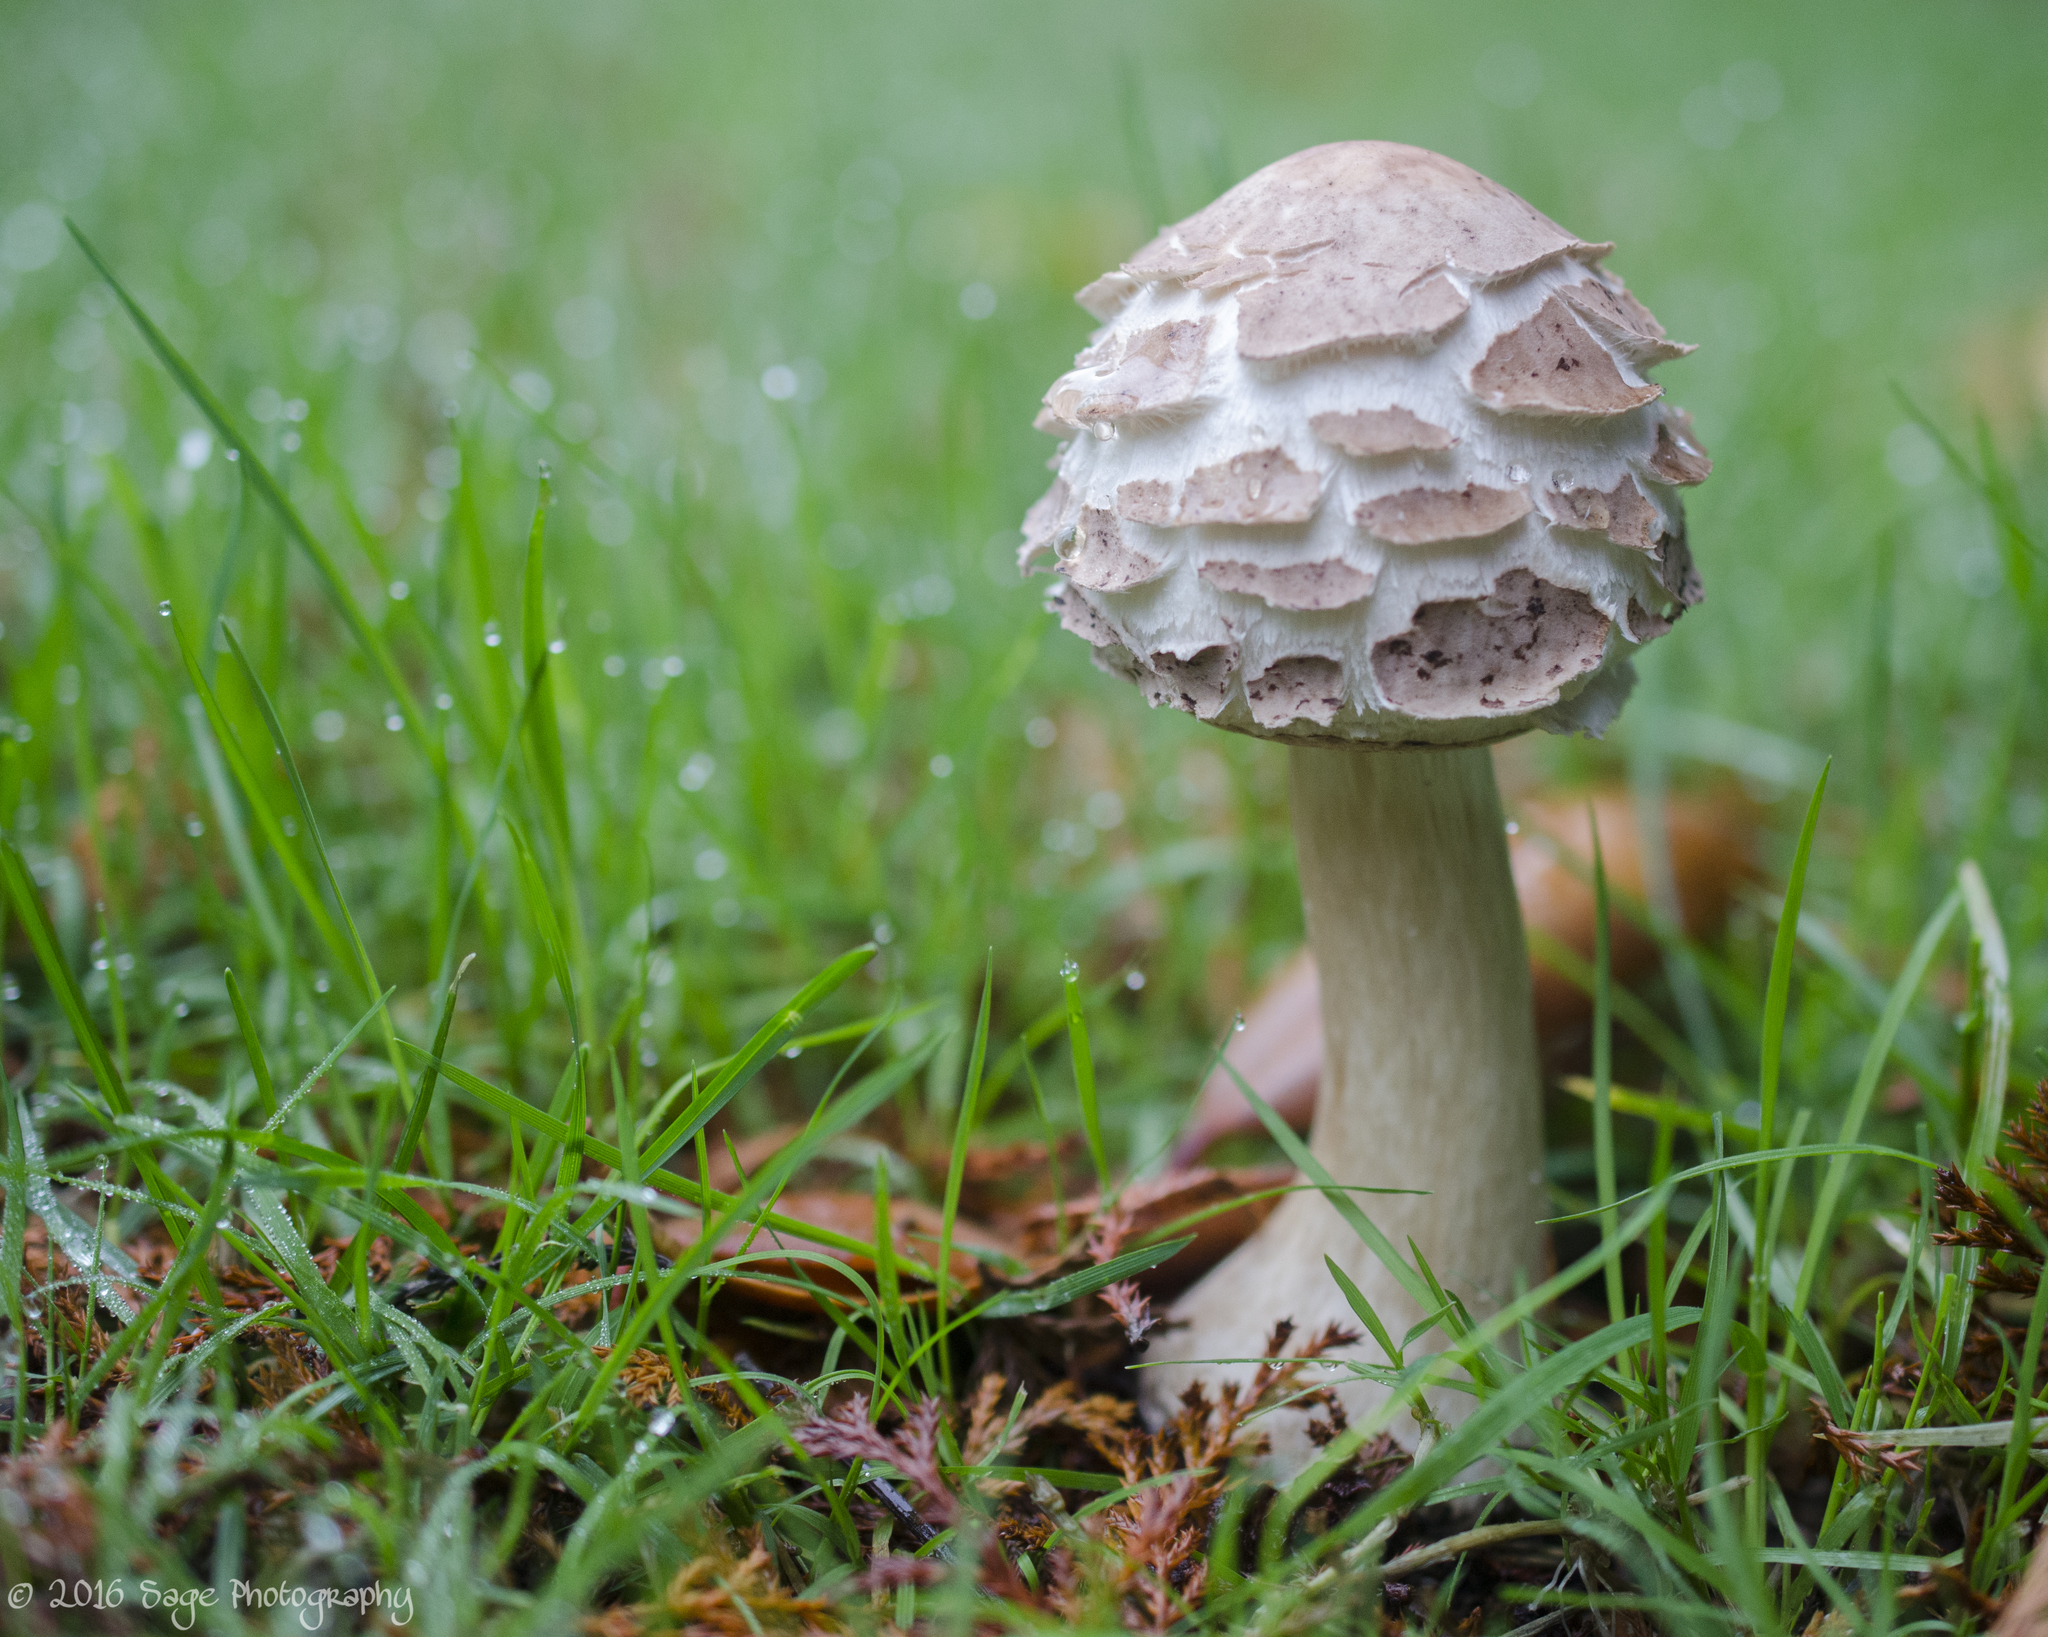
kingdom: Fungi
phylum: Basidiomycota
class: Agaricomycetes
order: Agaricales
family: Agaricaceae
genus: Chlorophyllum
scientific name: Chlorophyllum brunneum
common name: Brown parasol
